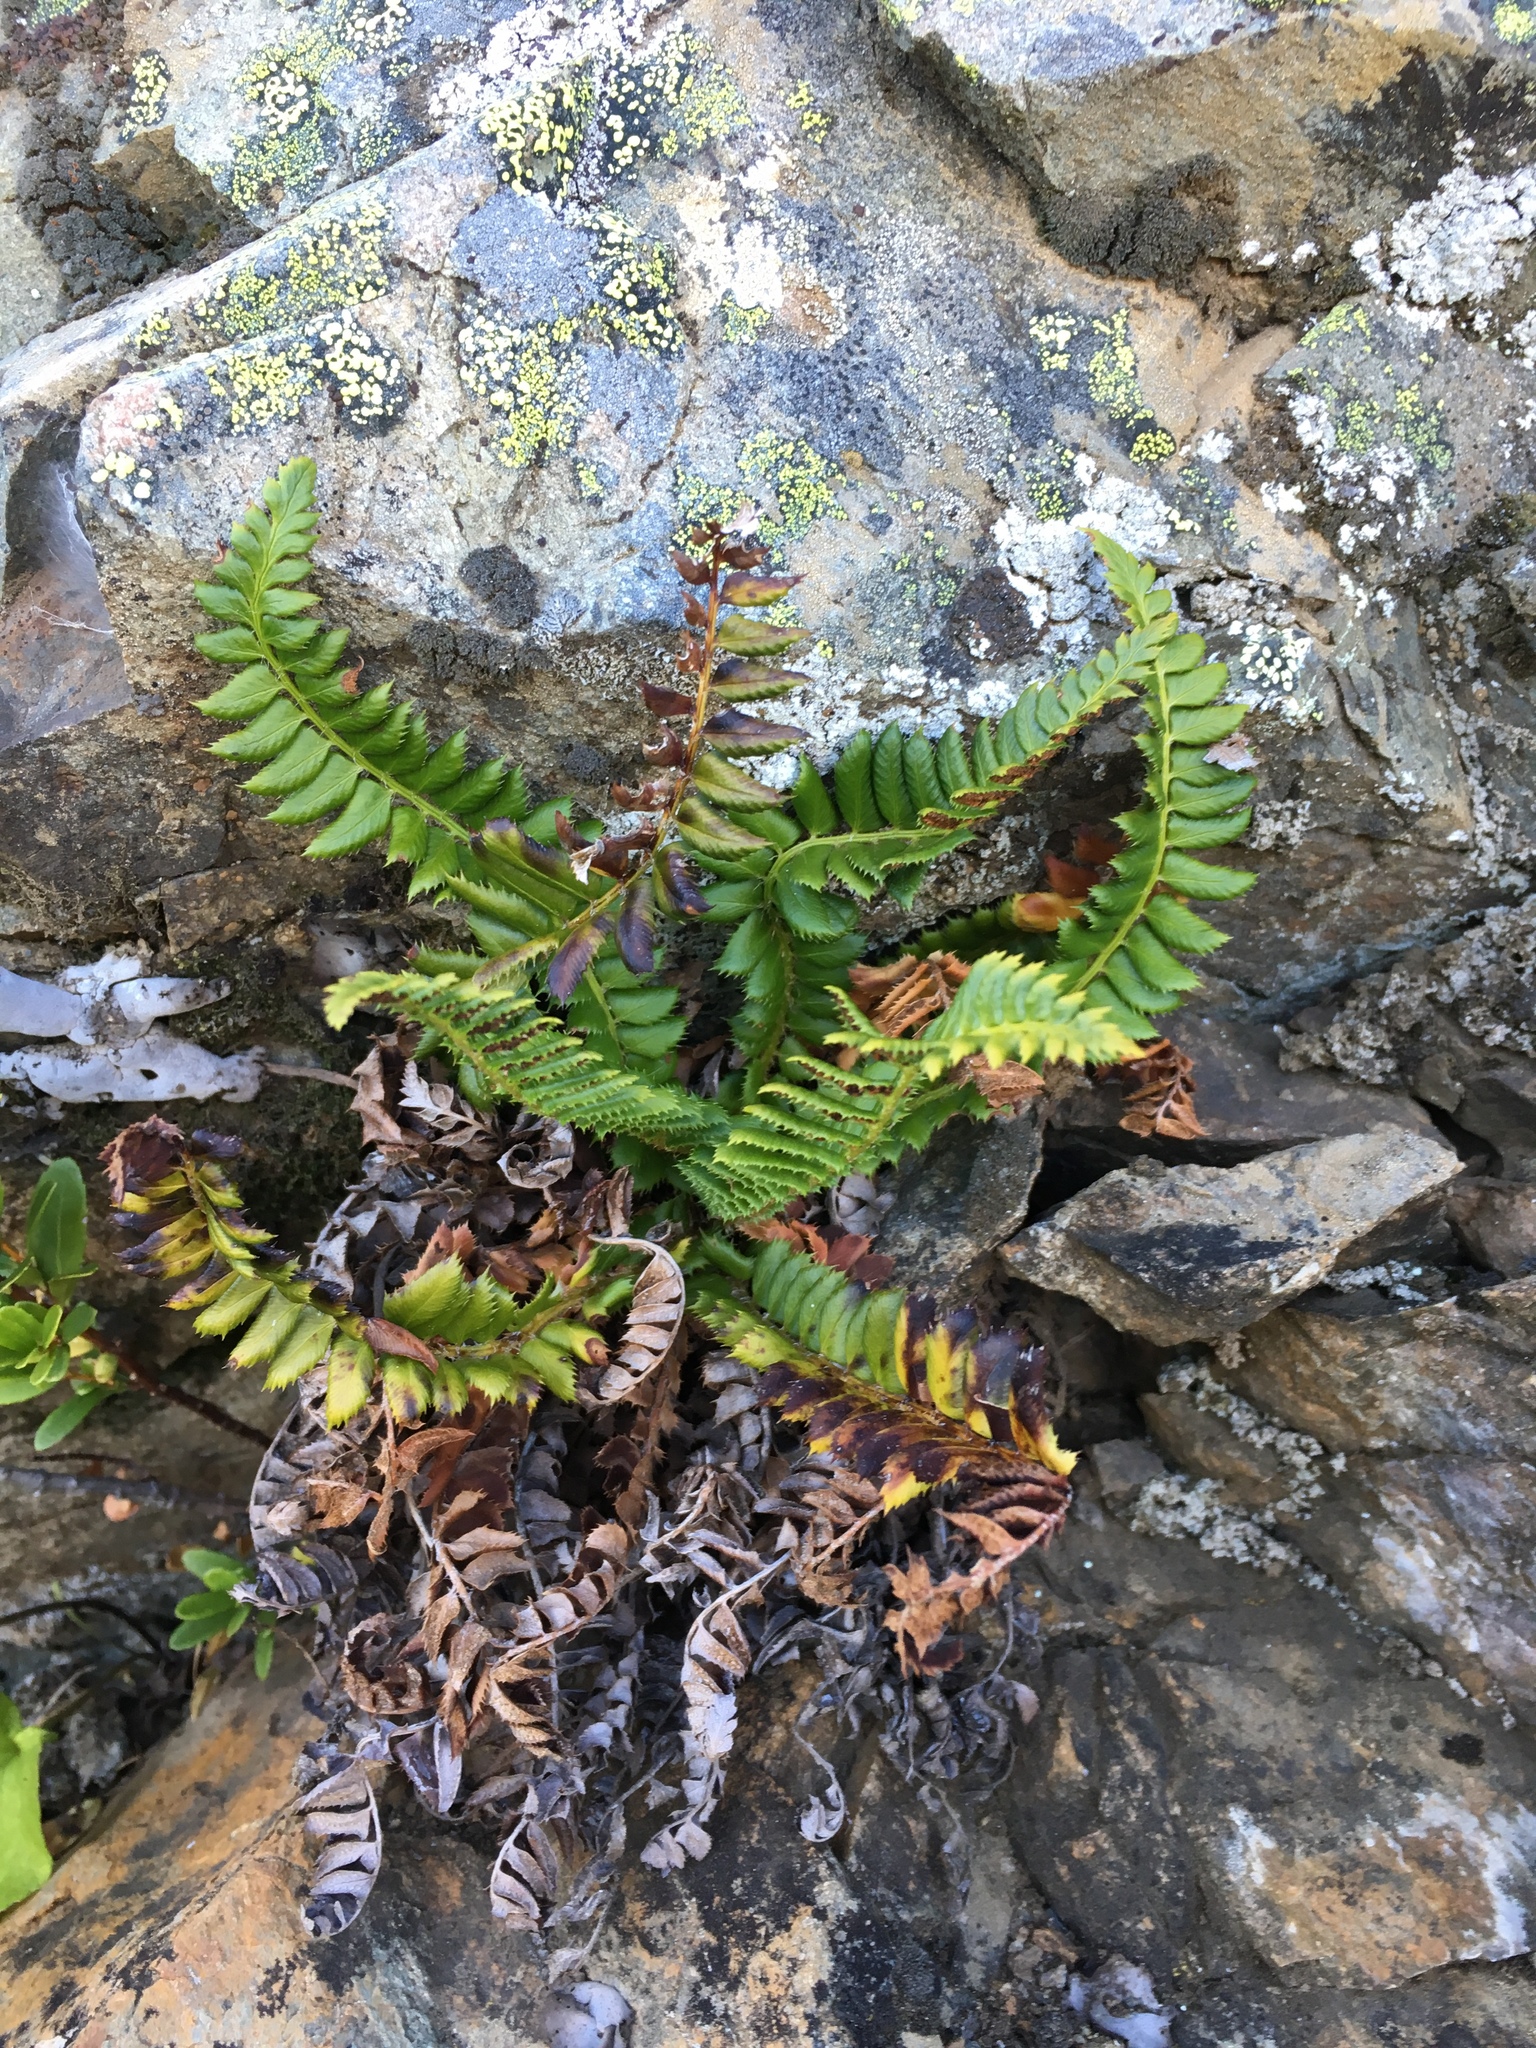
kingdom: Plantae
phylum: Tracheophyta
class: Polypodiopsida
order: Polypodiales
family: Dryopteridaceae
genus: Polystichum
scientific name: Polystichum lonchitis
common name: Holly fern
